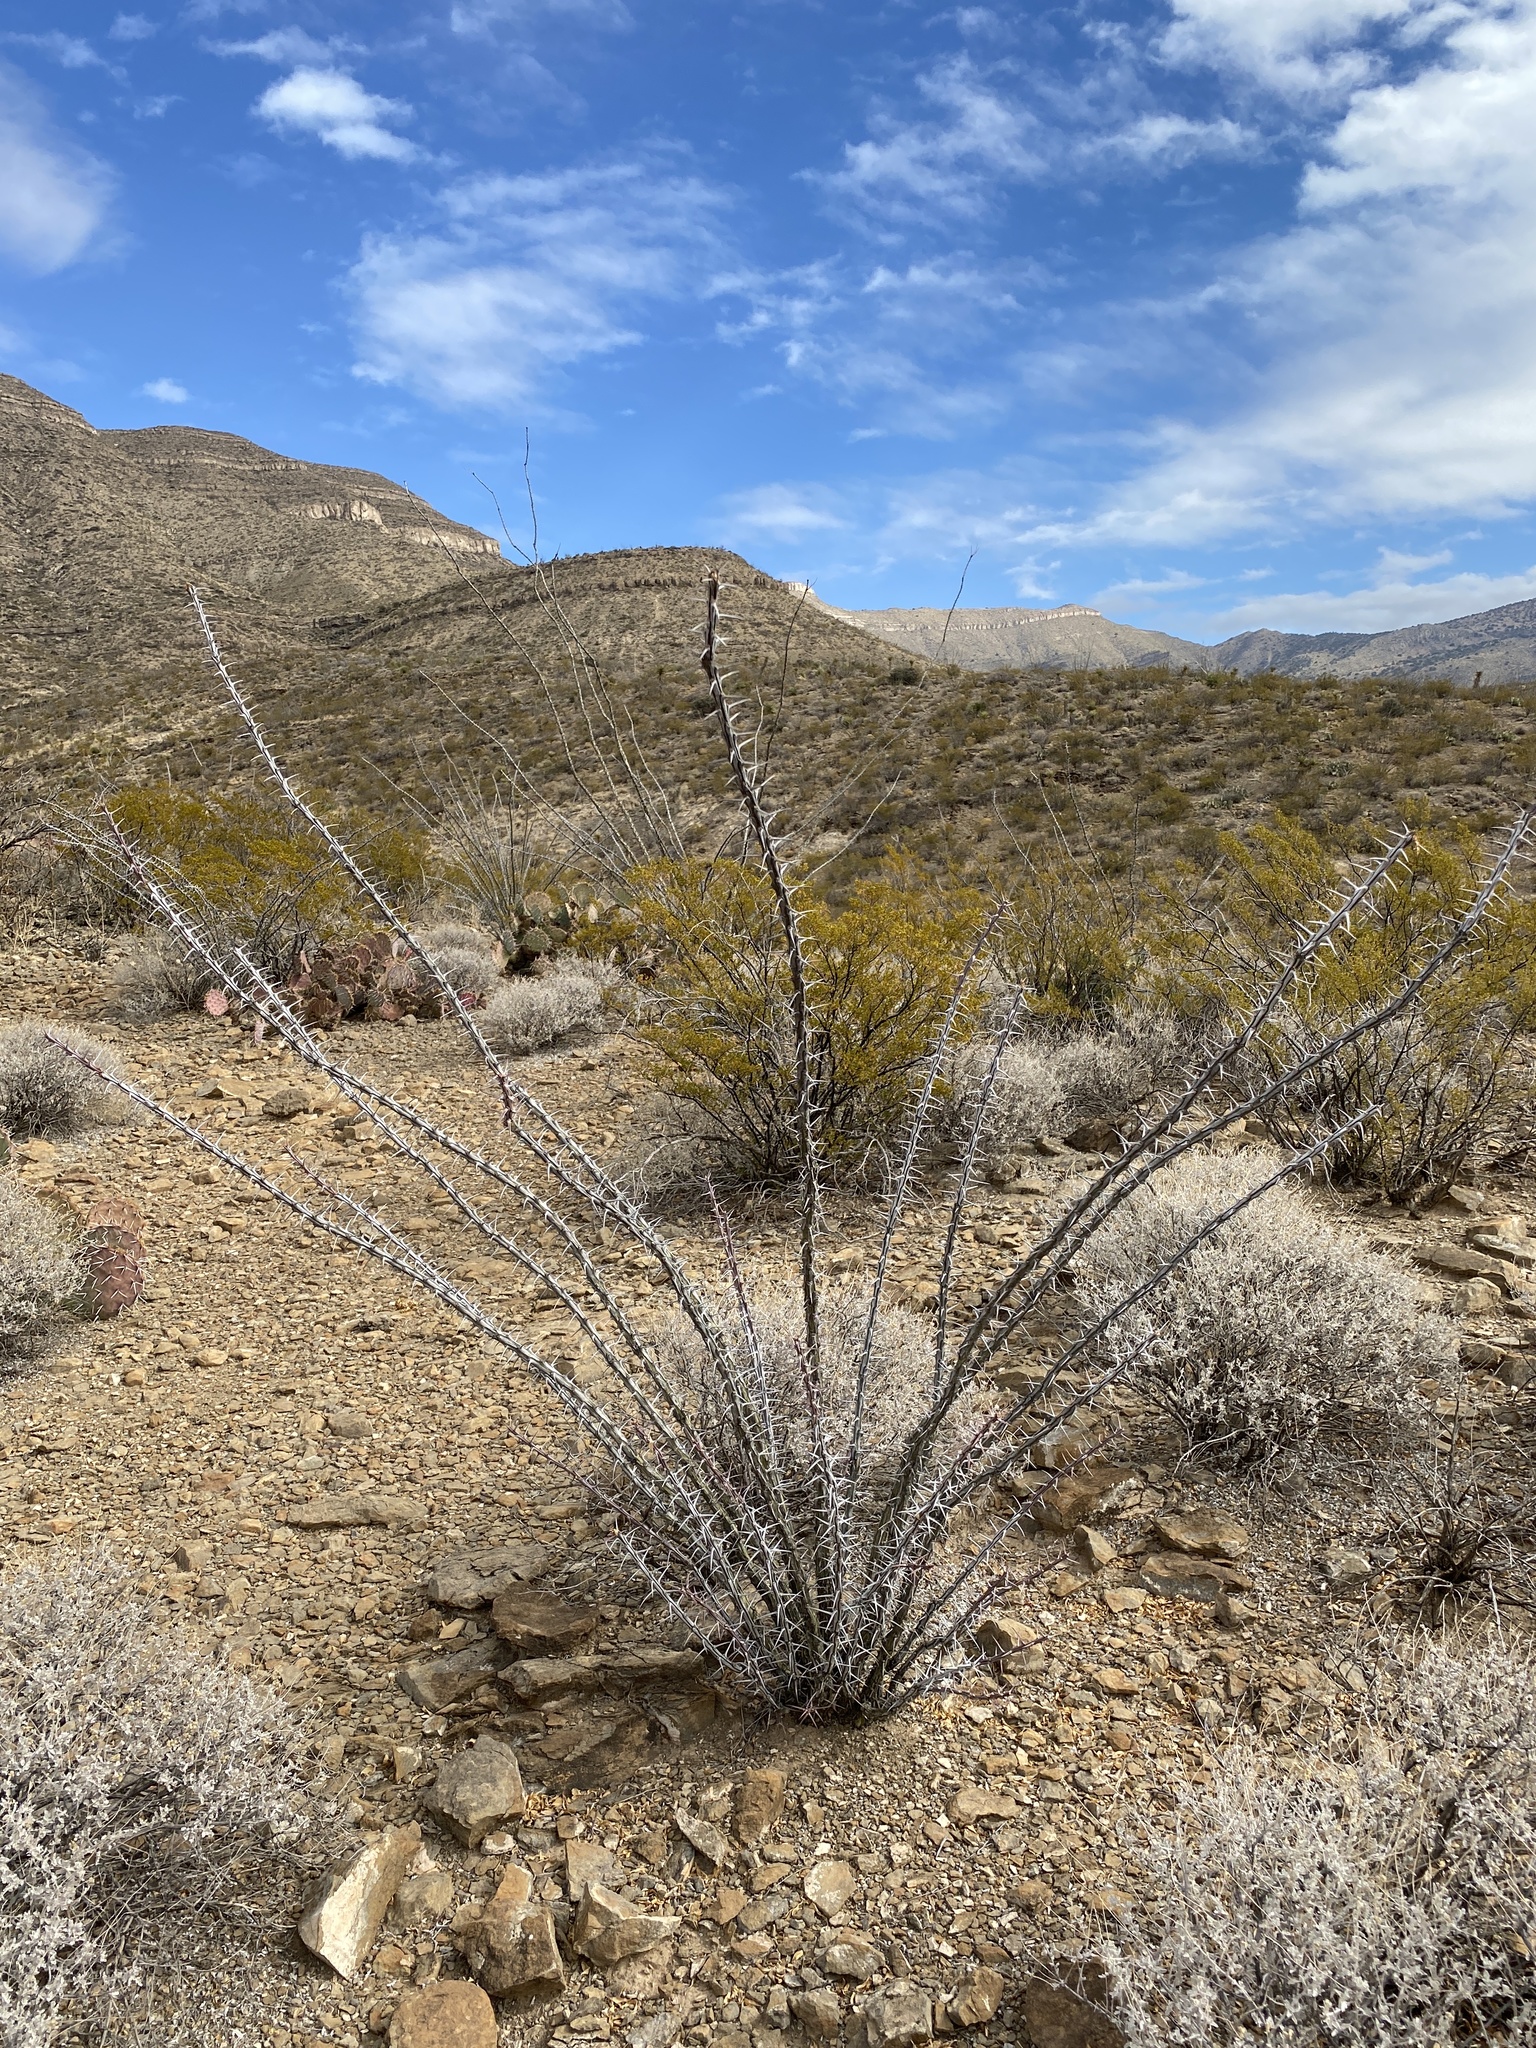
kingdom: Plantae
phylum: Tracheophyta
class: Magnoliopsida
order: Ericales
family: Fouquieriaceae
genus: Fouquieria
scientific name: Fouquieria splendens
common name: Vine-cactus
